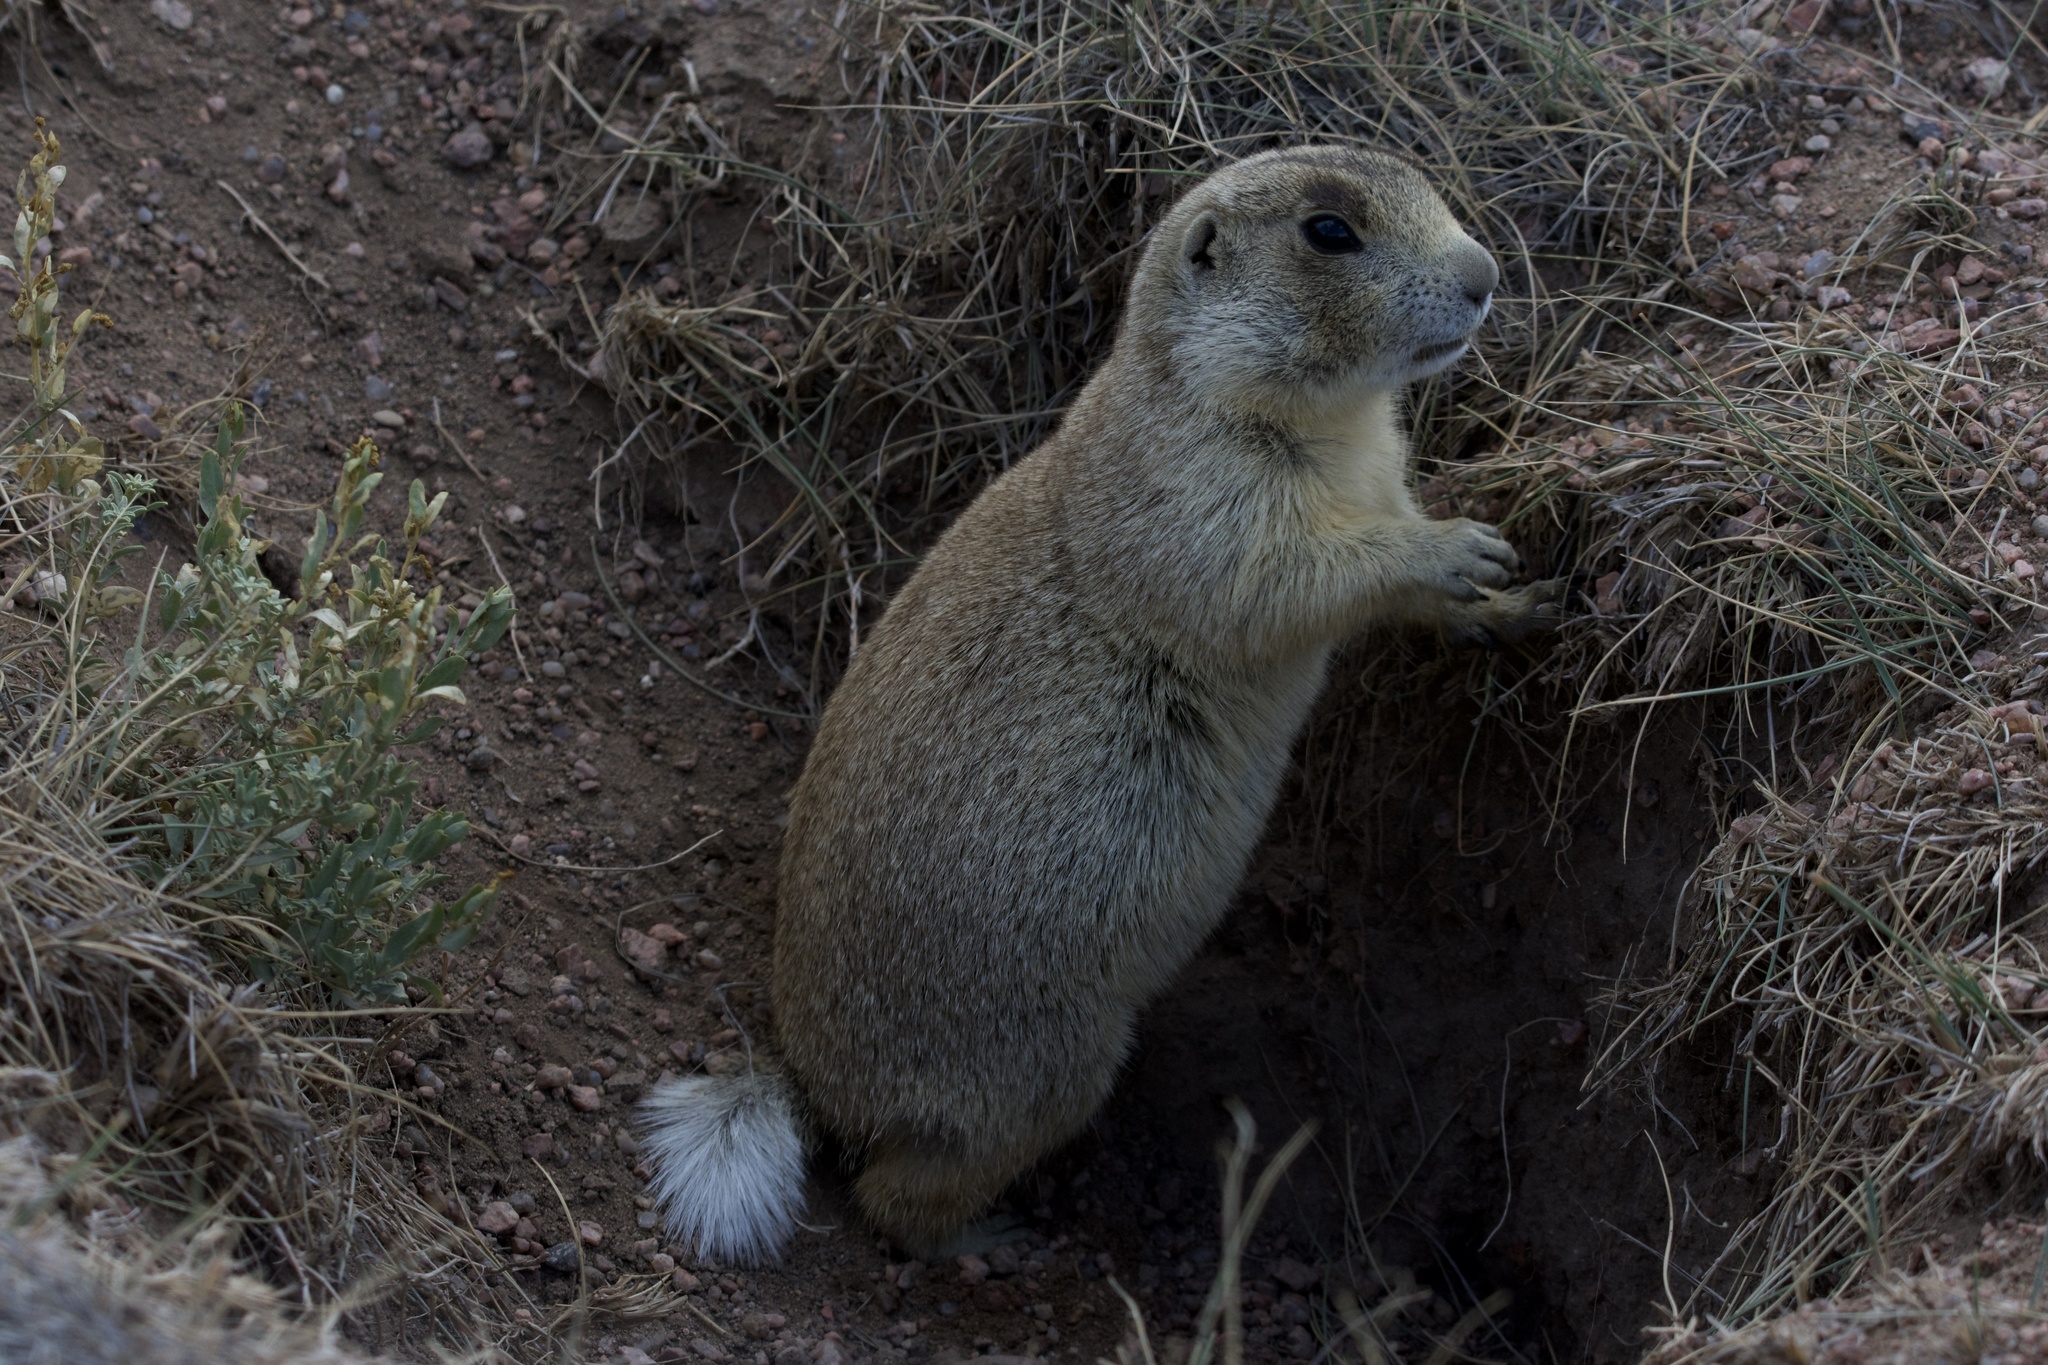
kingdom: Animalia
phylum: Chordata
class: Mammalia
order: Rodentia
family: Sciuridae
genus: Cynomys
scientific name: Cynomys leucurus
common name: White-tailed prairie dog
